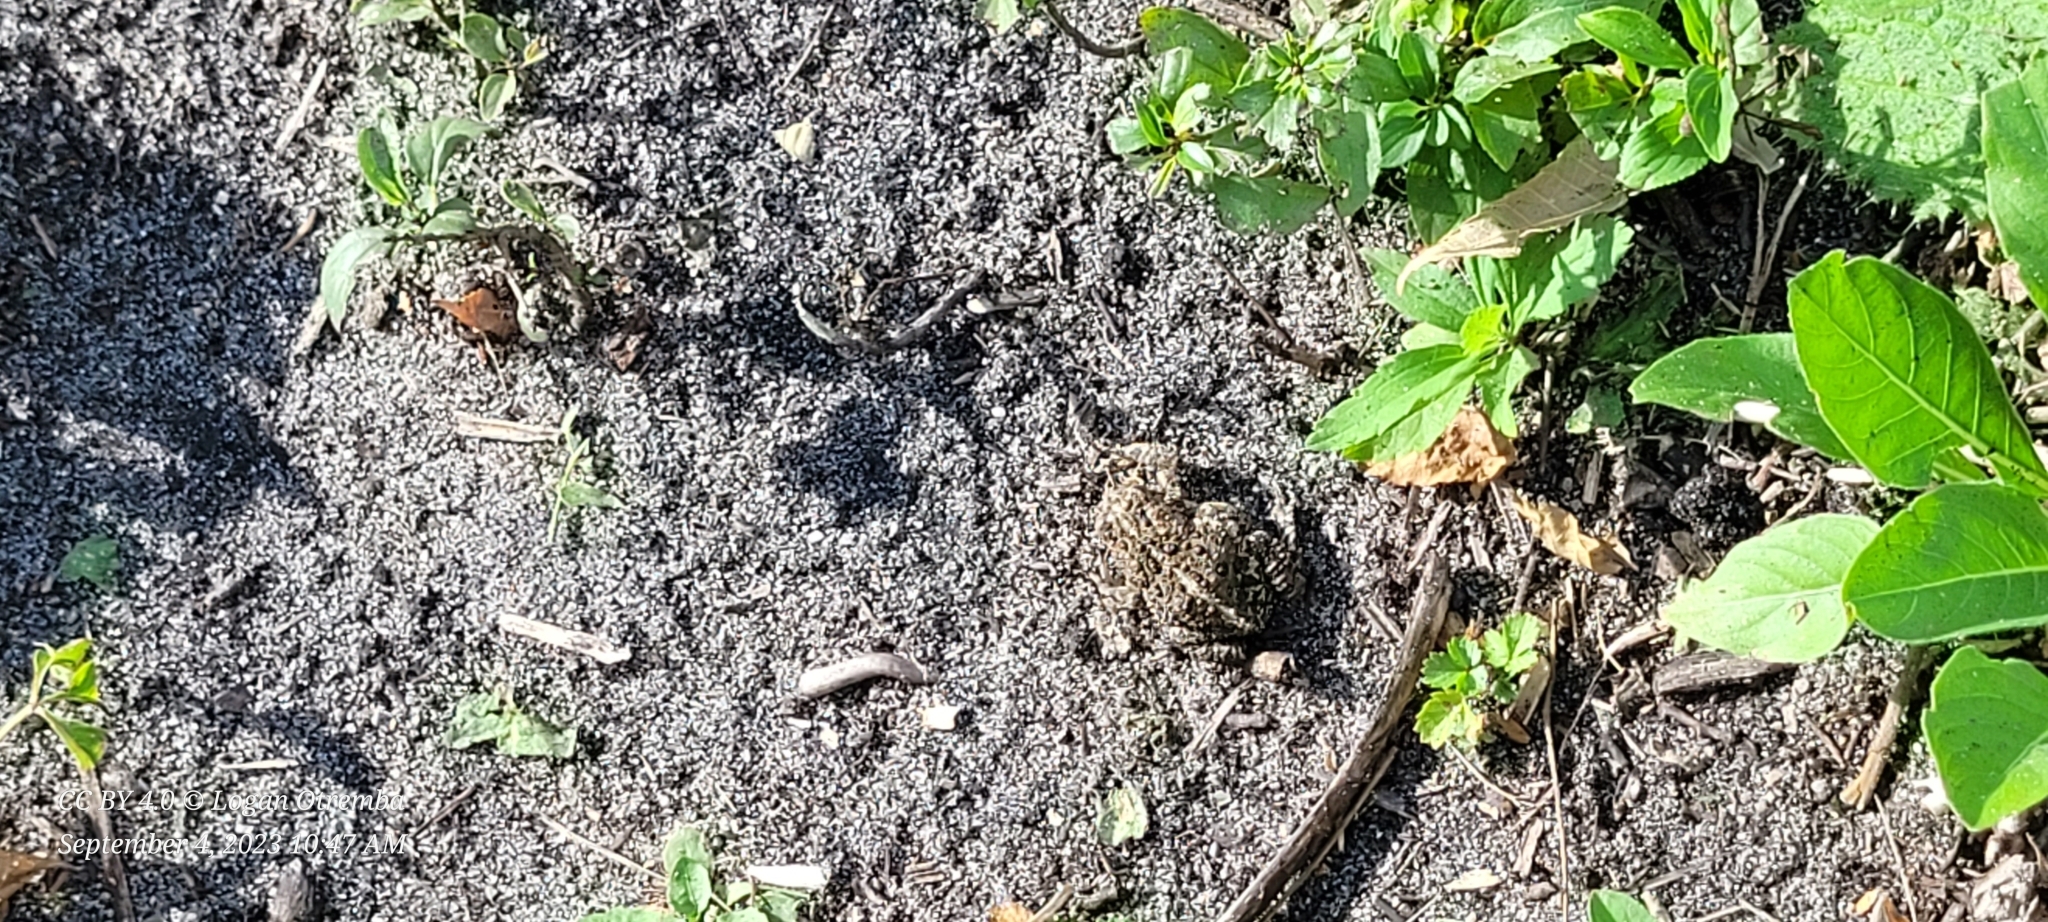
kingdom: Animalia
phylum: Chordata
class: Amphibia
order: Anura
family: Bufonidae
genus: Anaxyrus
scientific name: Anaxyrus hemiophrys
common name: Canadian toad
